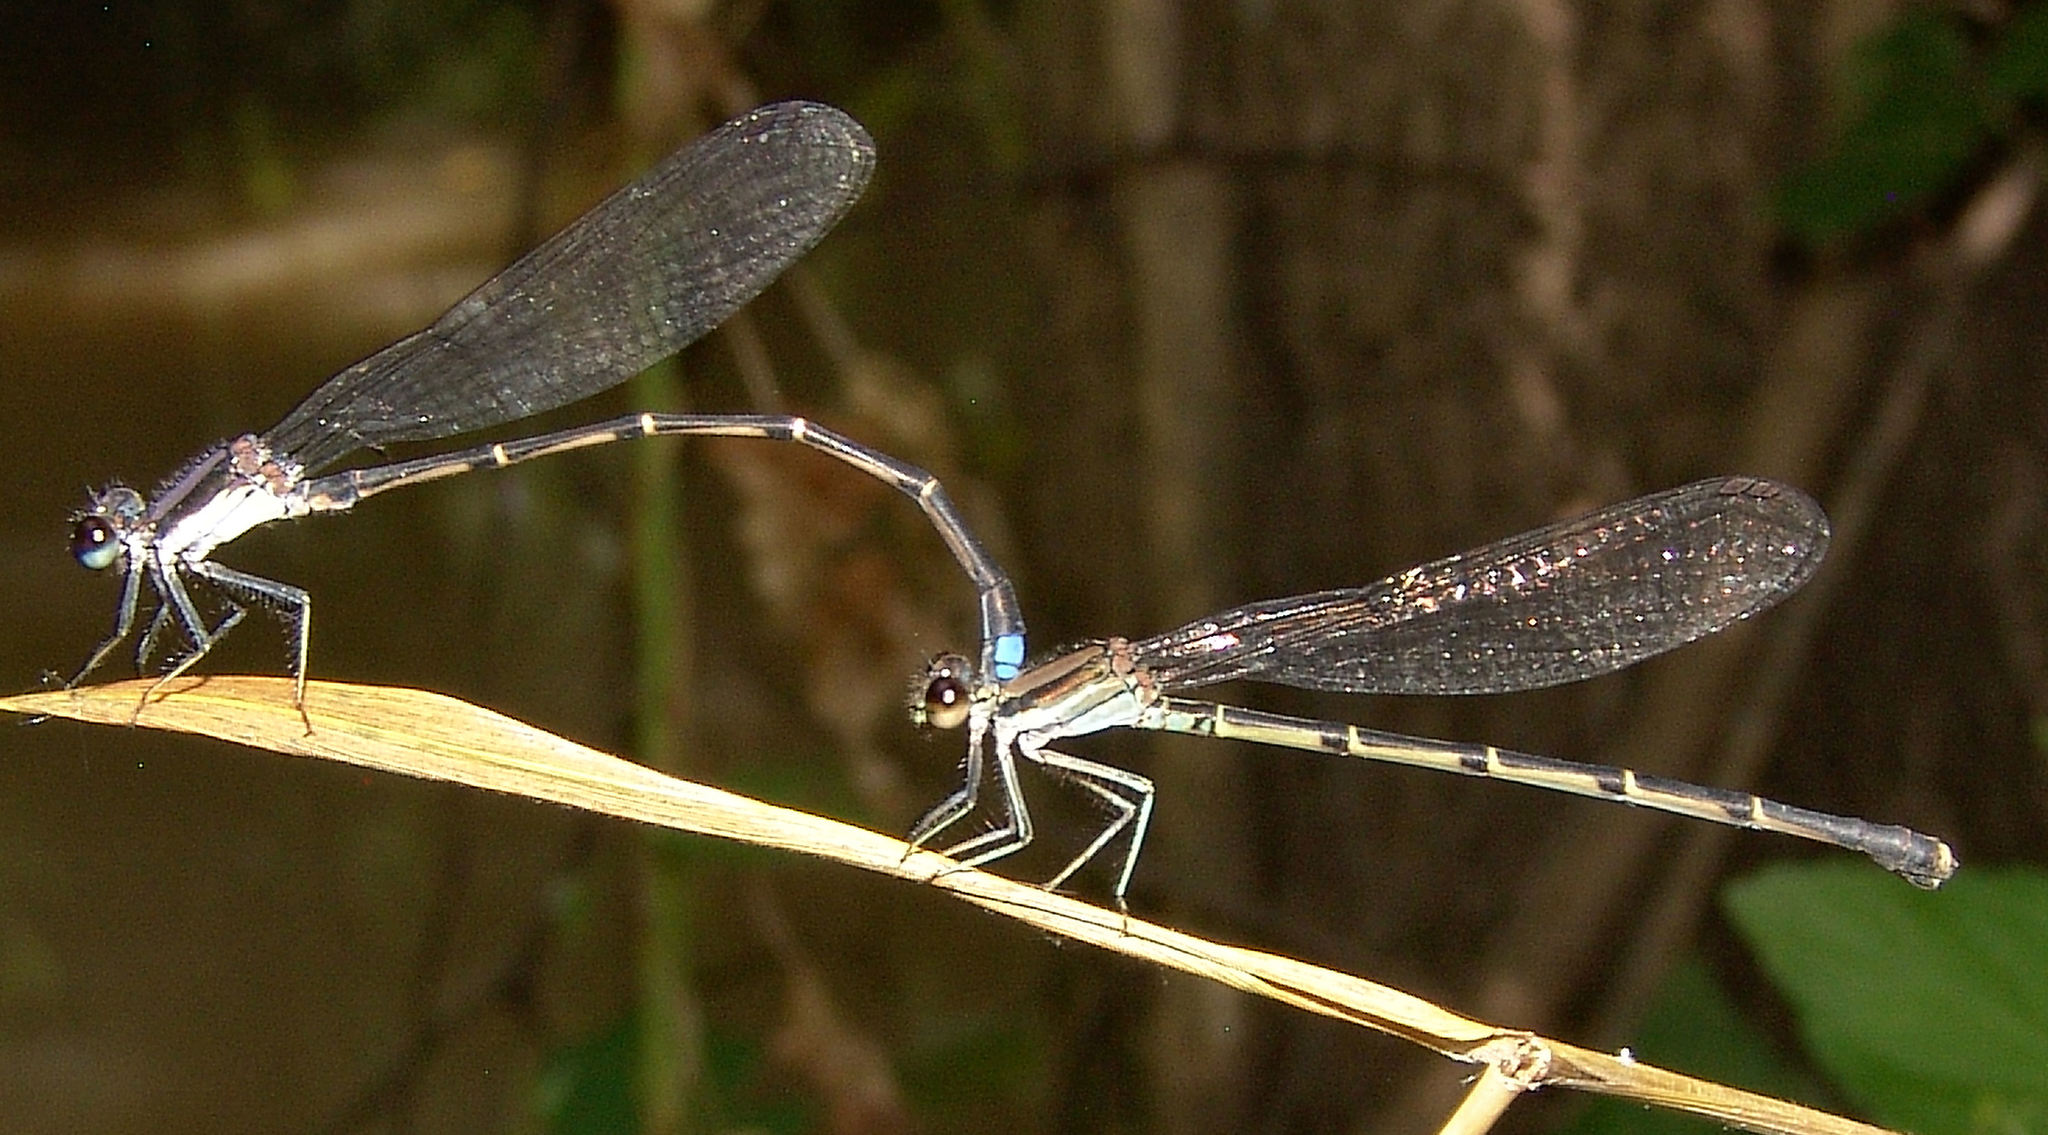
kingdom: Animalia
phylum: Arthropoda
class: Insecta
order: Odonata
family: Coenagrionidae
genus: Argia
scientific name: Argia tibialis
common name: Blue-tipped dancer
